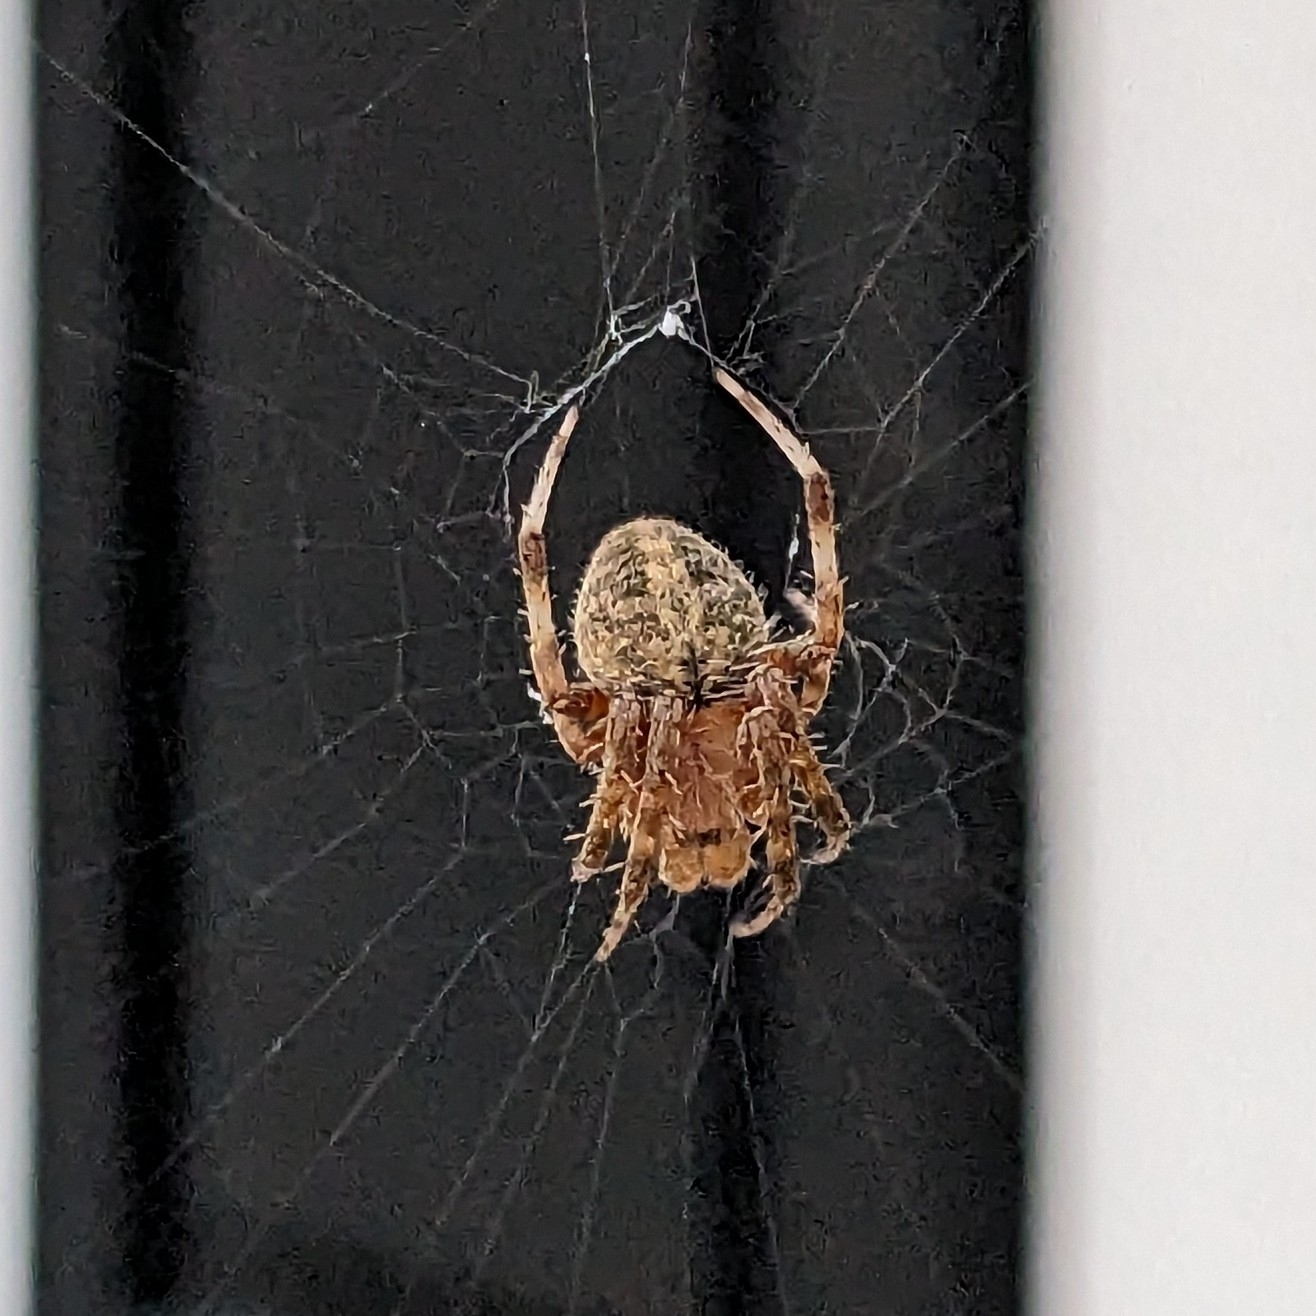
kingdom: Animalia
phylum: Arthropoda
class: Arachnida
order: Araneae
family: Araneidae
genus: Neoscona
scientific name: Neoscona crucifera
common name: Spotted orbweaver
